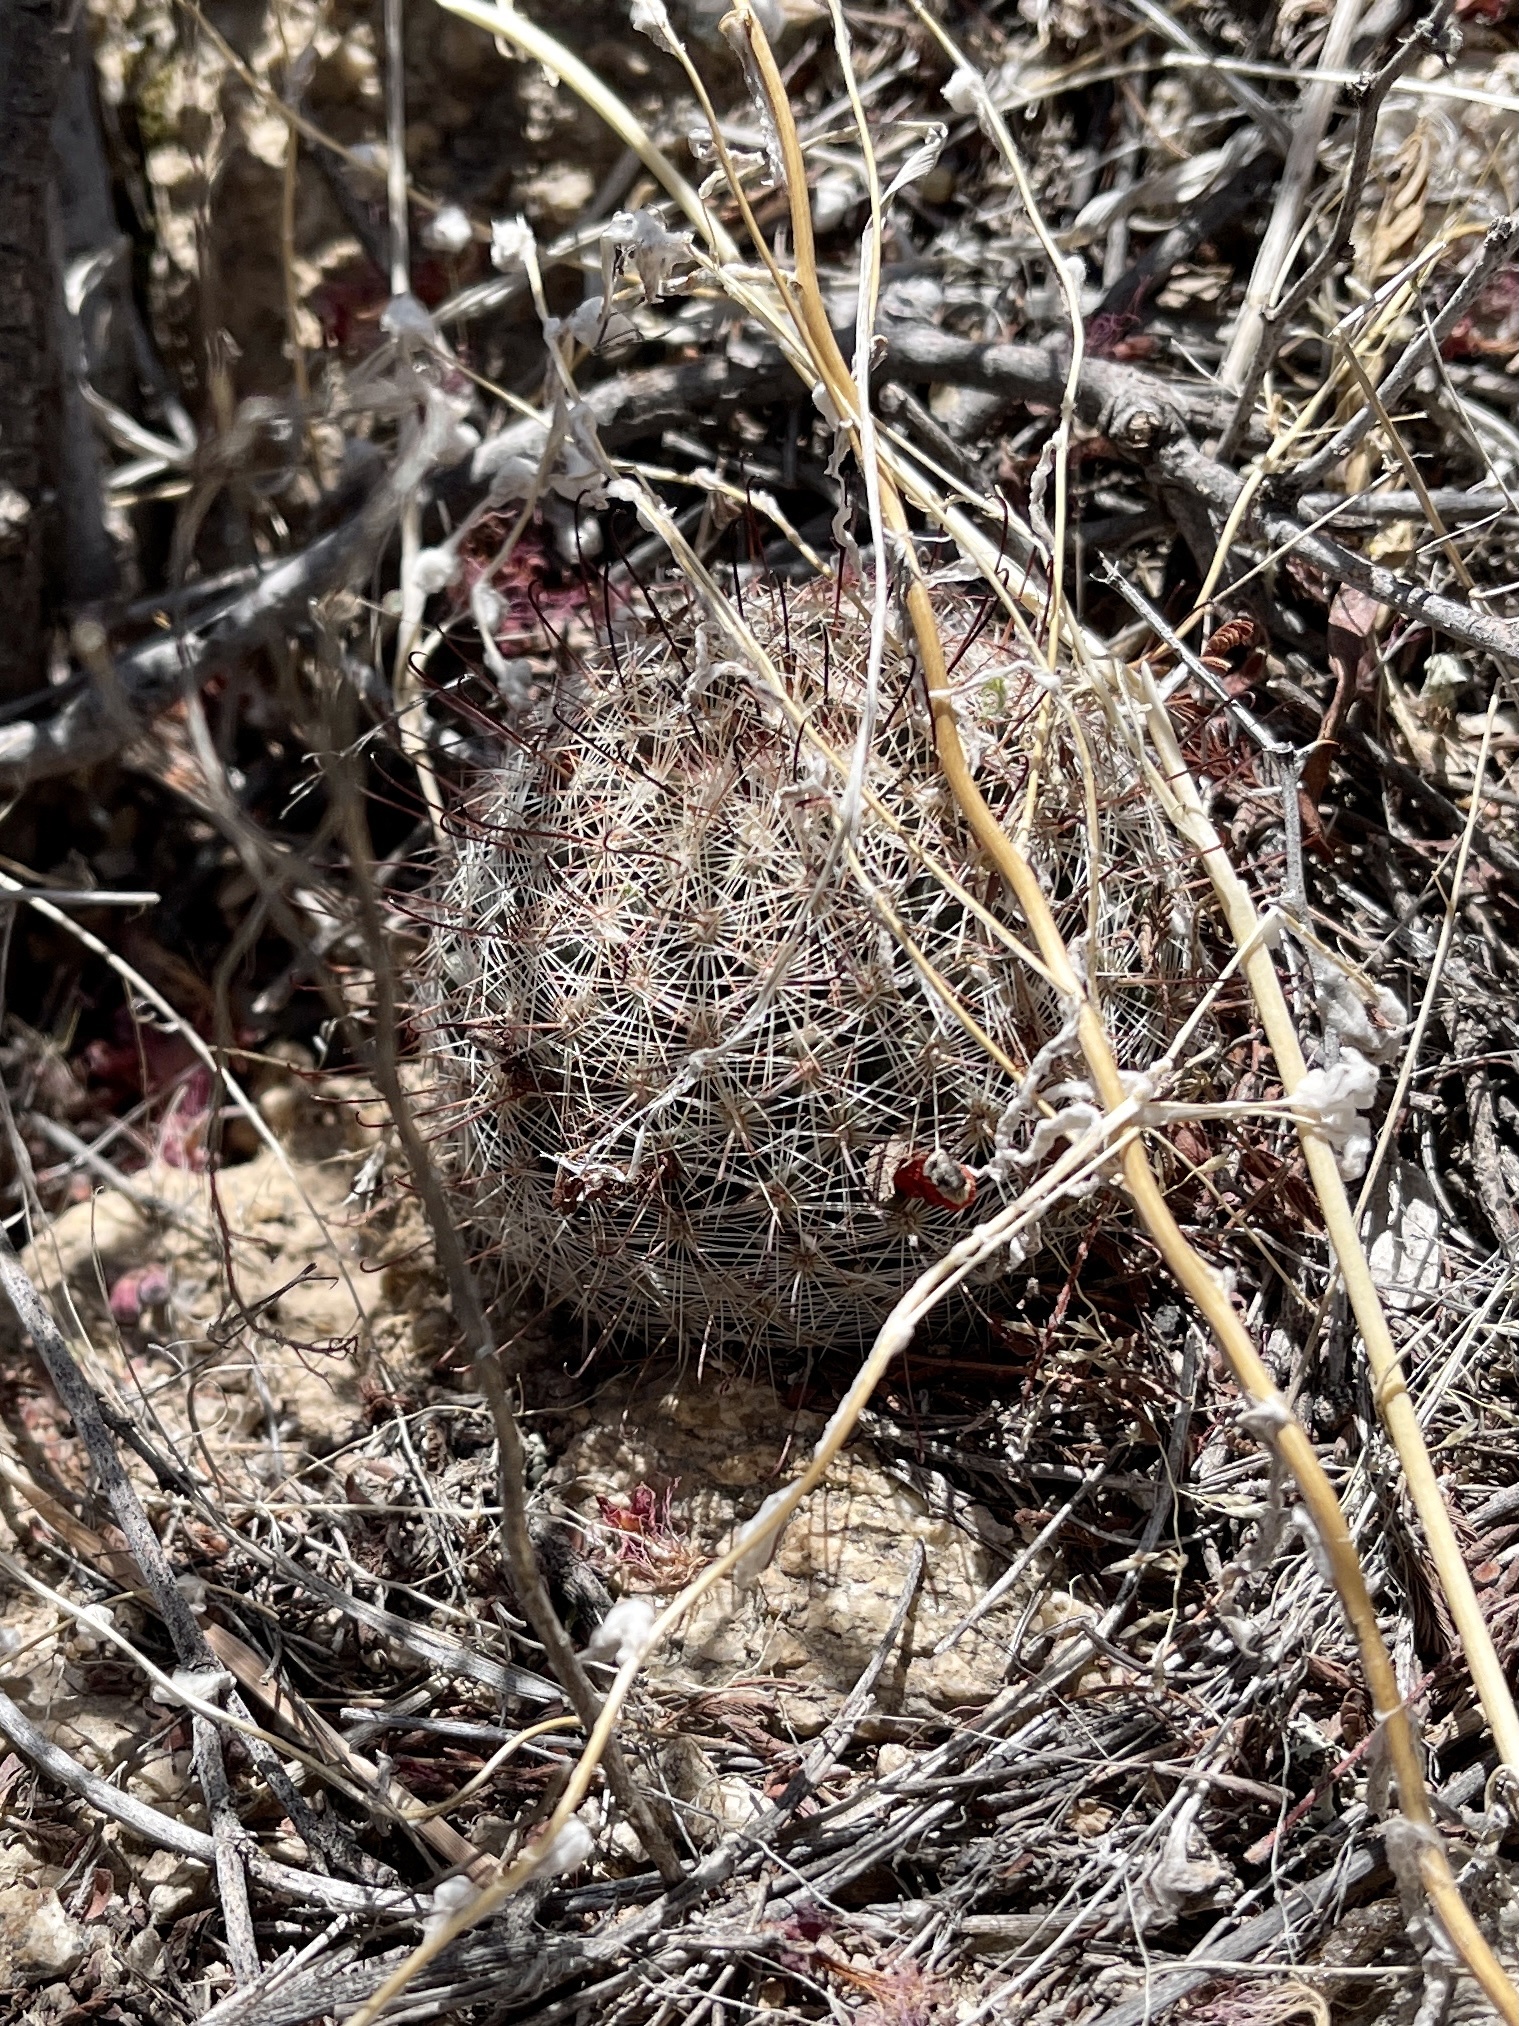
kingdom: Plantae
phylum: Tracheophyta
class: Magnoliopsida
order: Caryophyllales
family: Cactaceae
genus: Cochemiea
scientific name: Cochemiea grahamii
